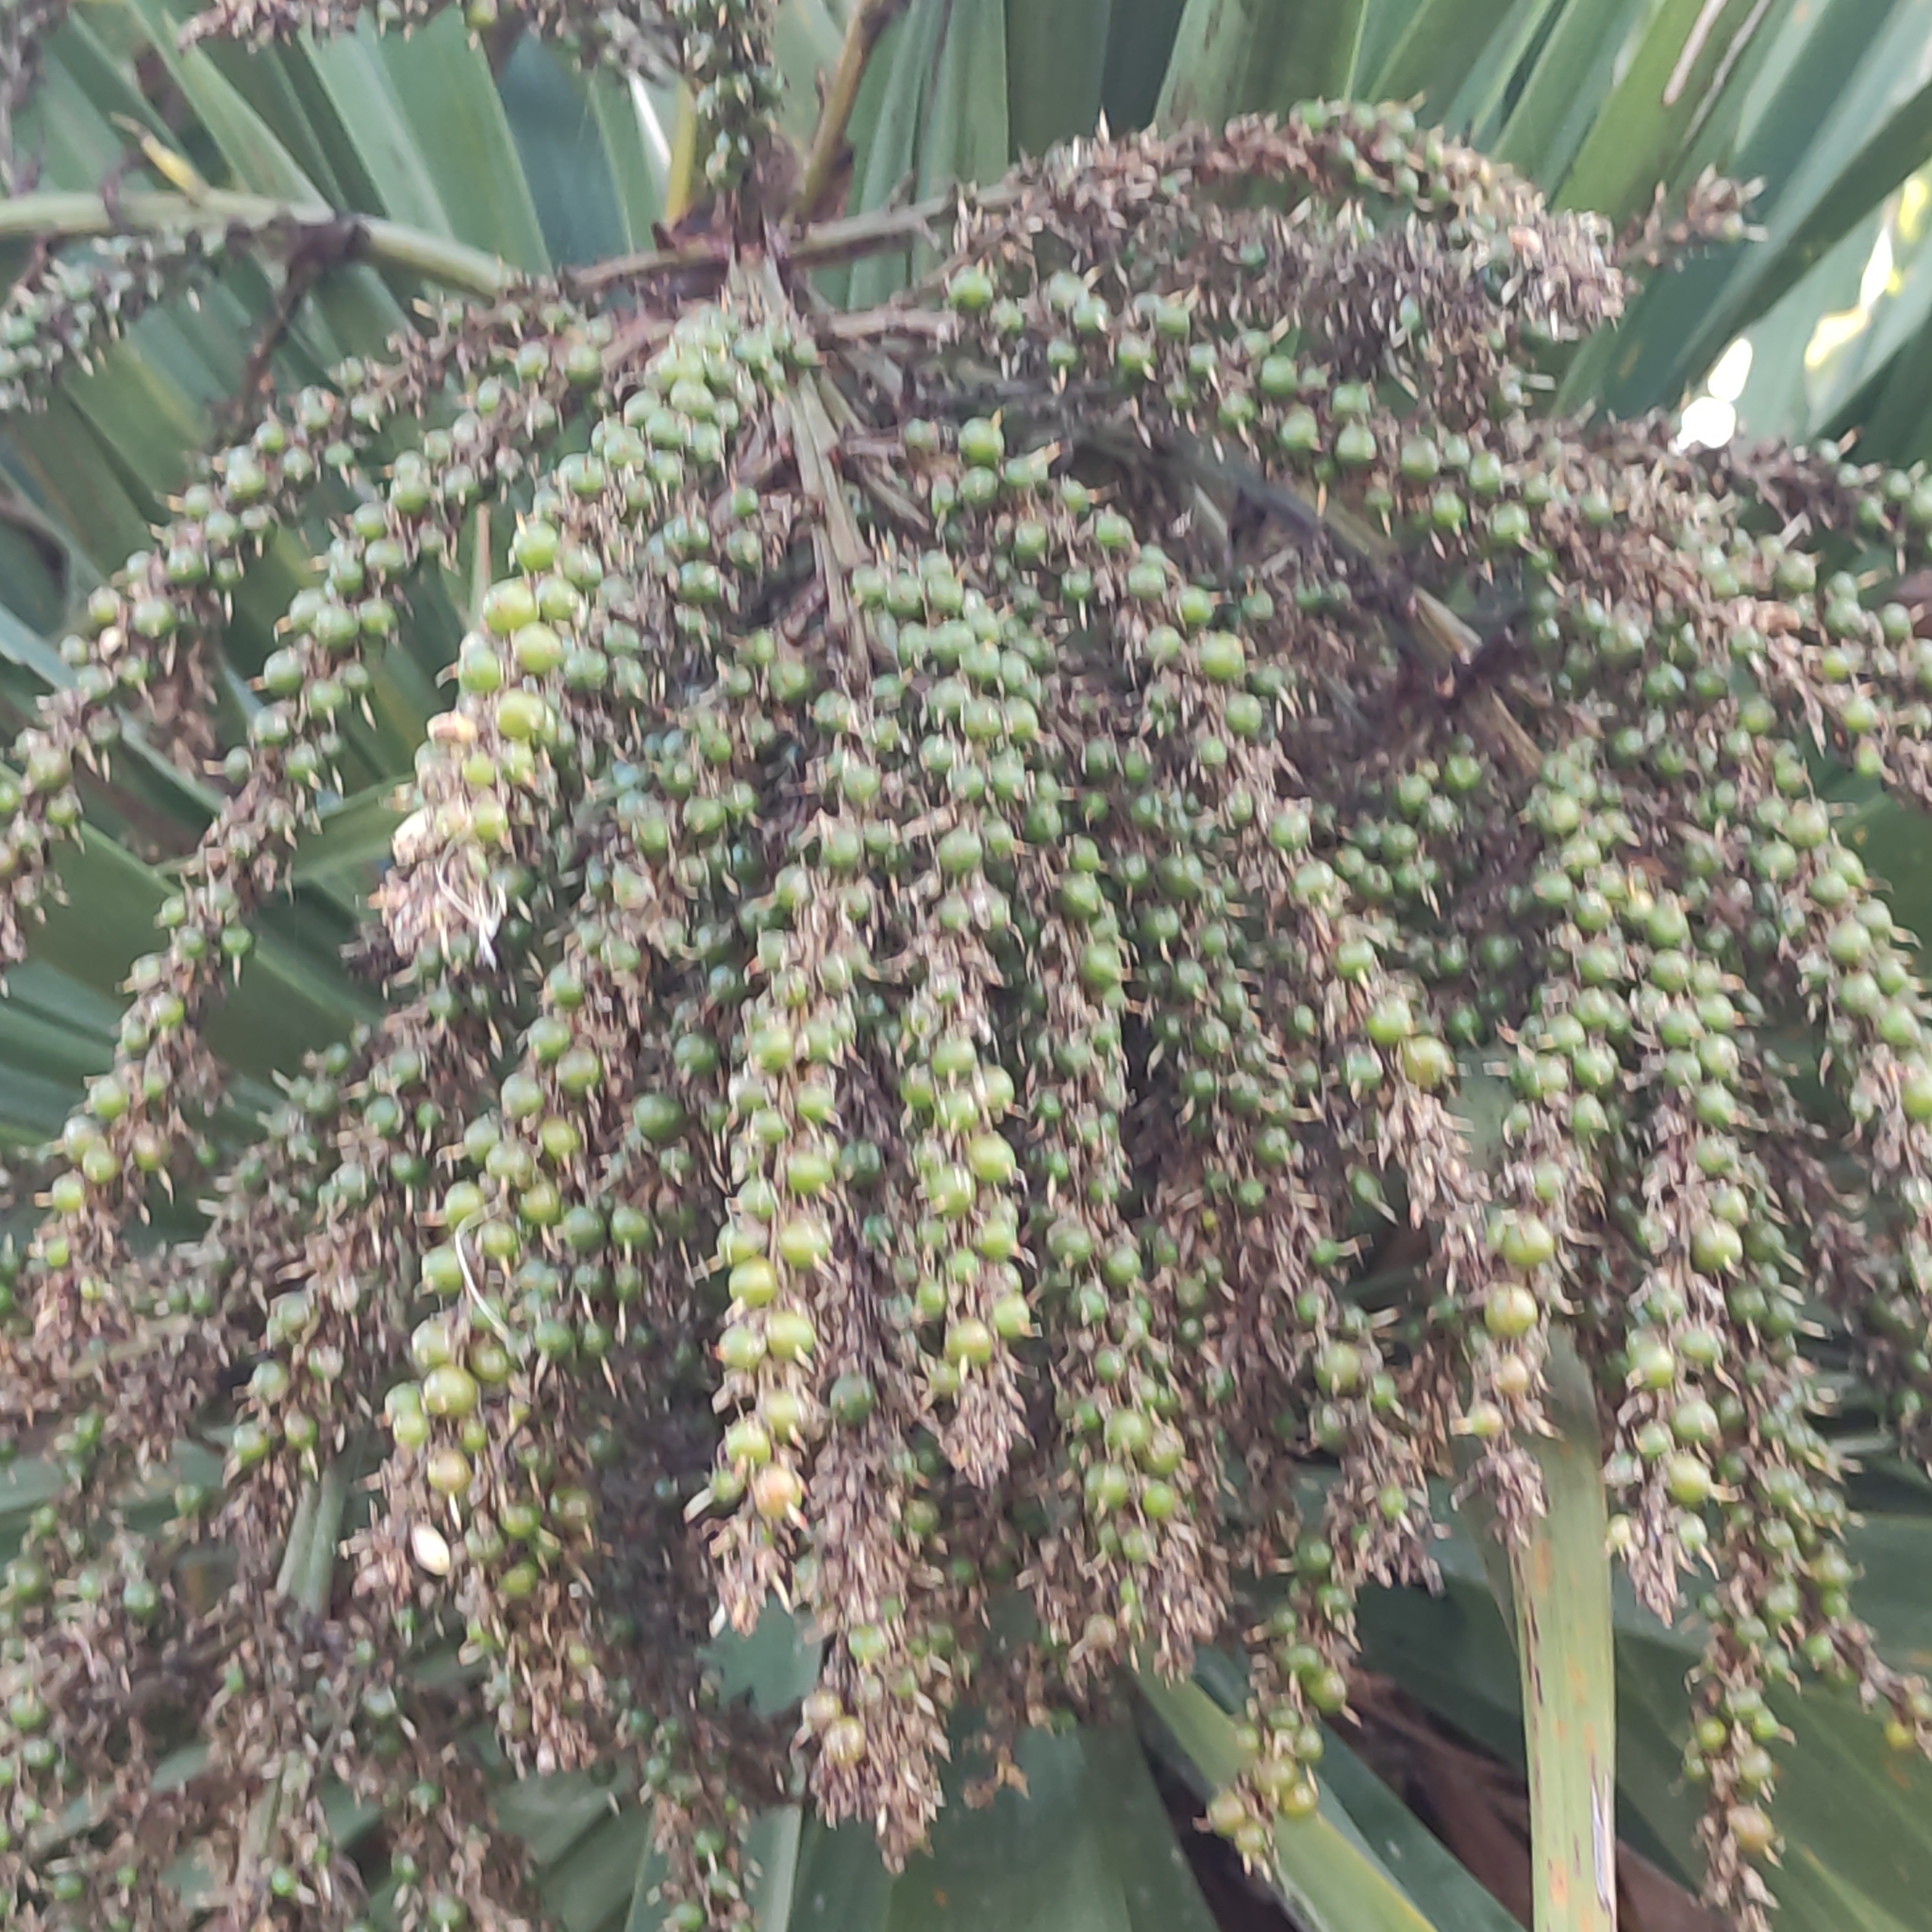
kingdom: Plantae
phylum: Tracheophyta
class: Liliopsida
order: Asparagales
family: Asparagaceae
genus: Cordyline
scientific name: Cordyline australis
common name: Cabbage-palm
